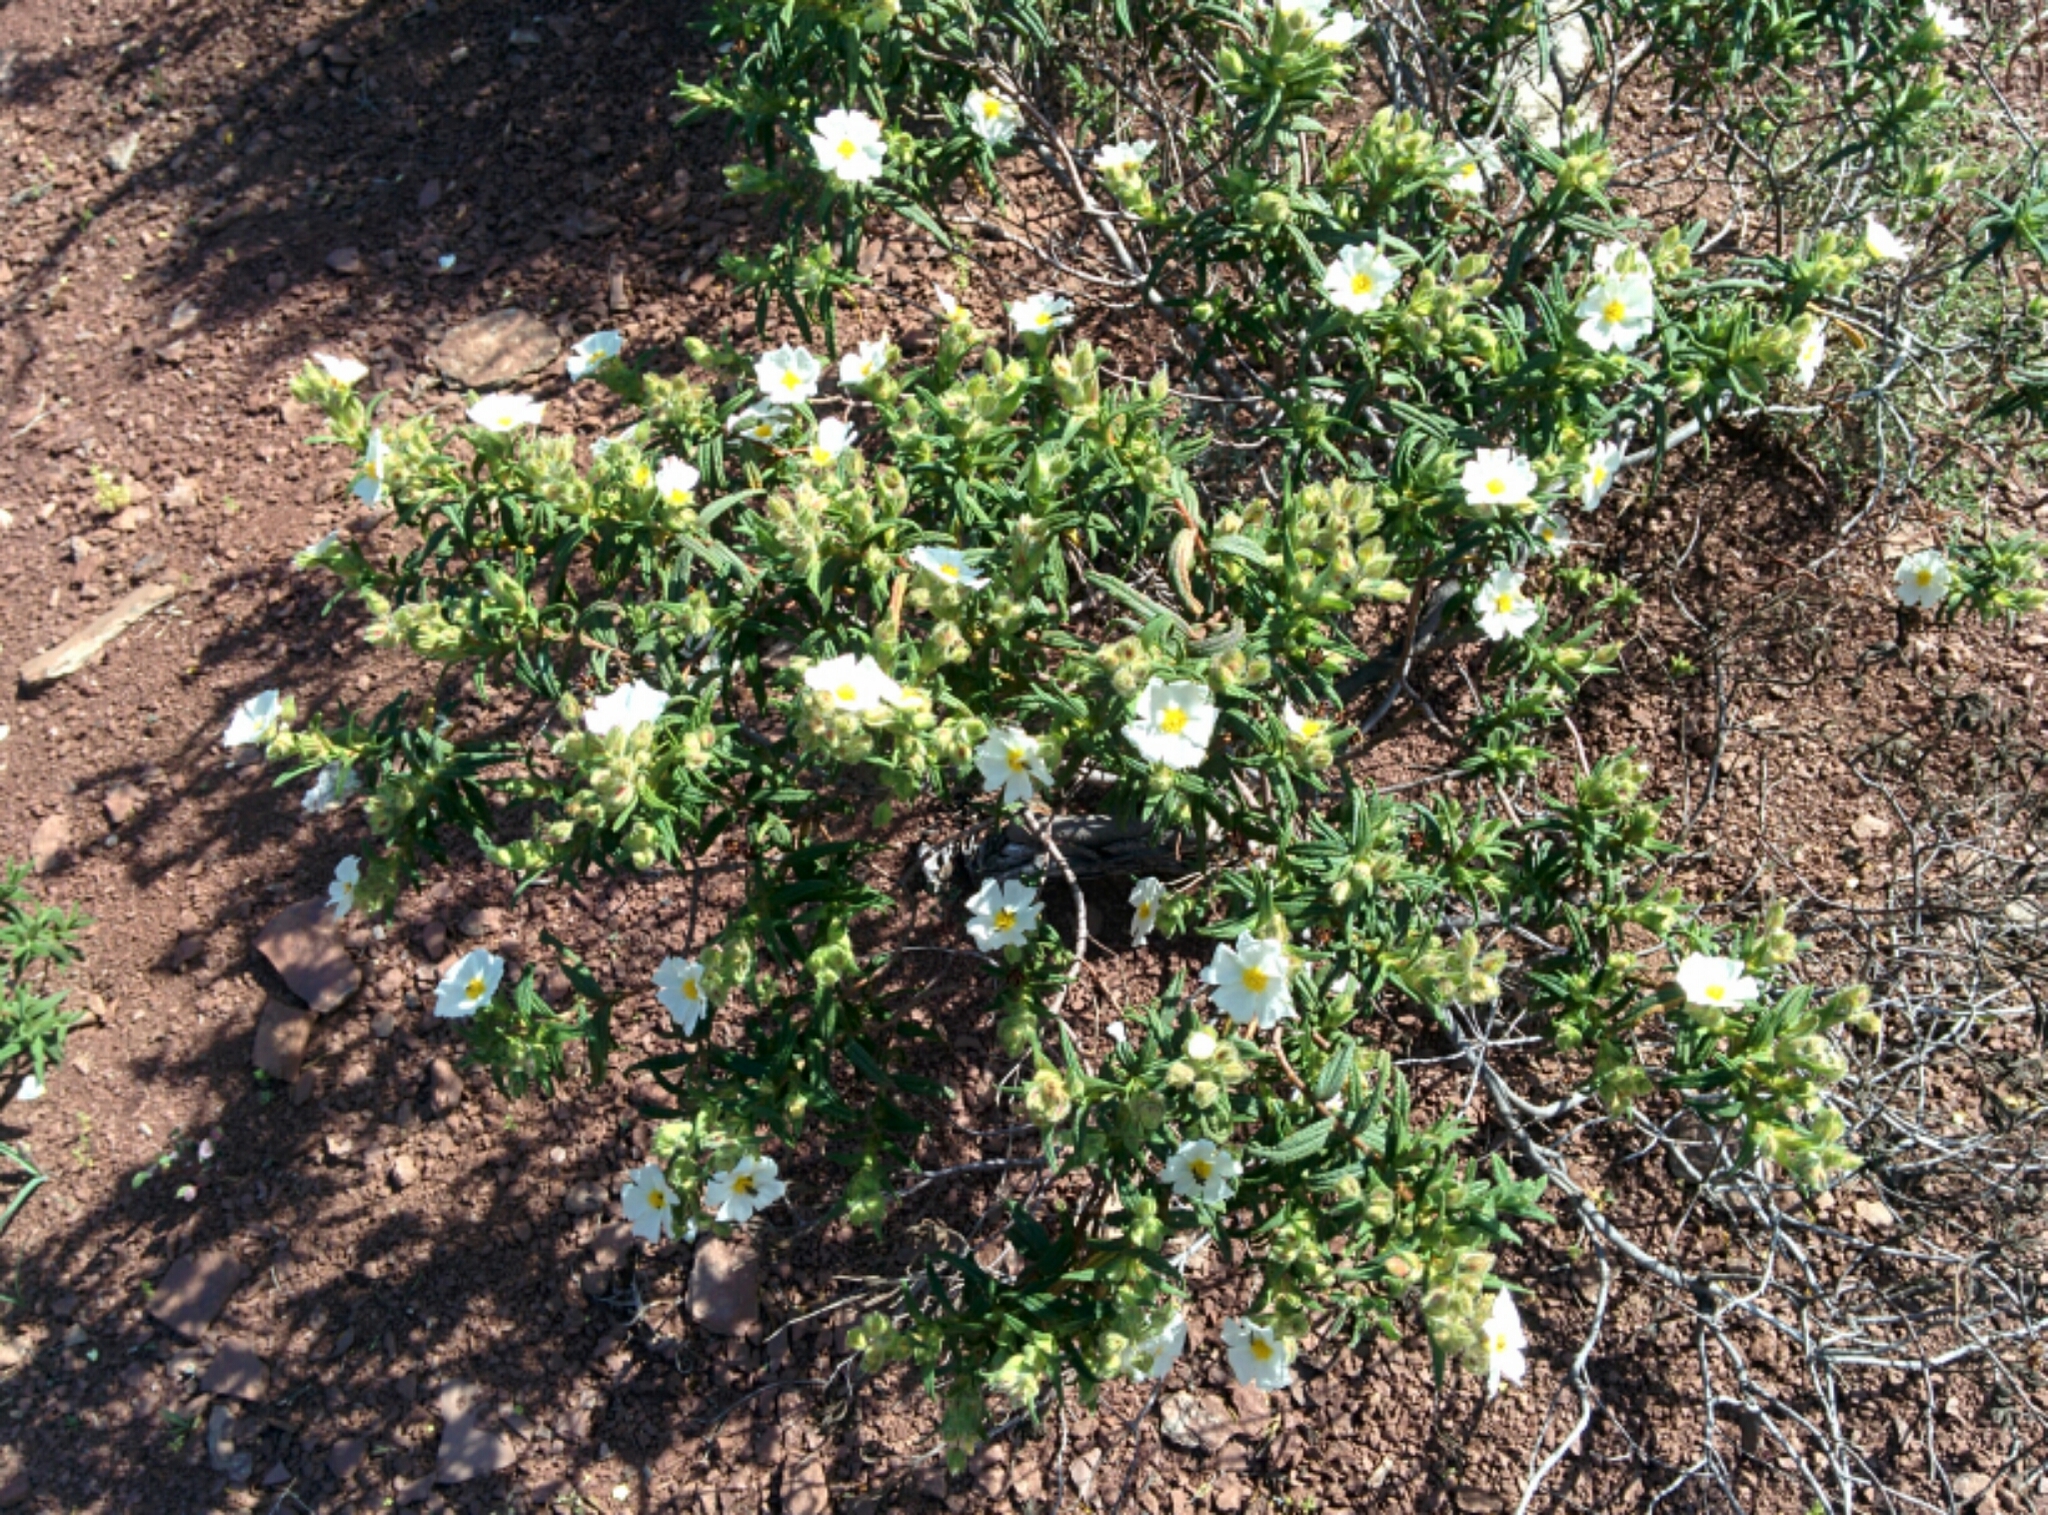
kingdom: Plantae
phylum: Tracheophyta
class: Magnoliopsida
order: Malvales
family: Cistaceae
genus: Cistus
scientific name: Cistus monspeliensis
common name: Montpelier cistus
